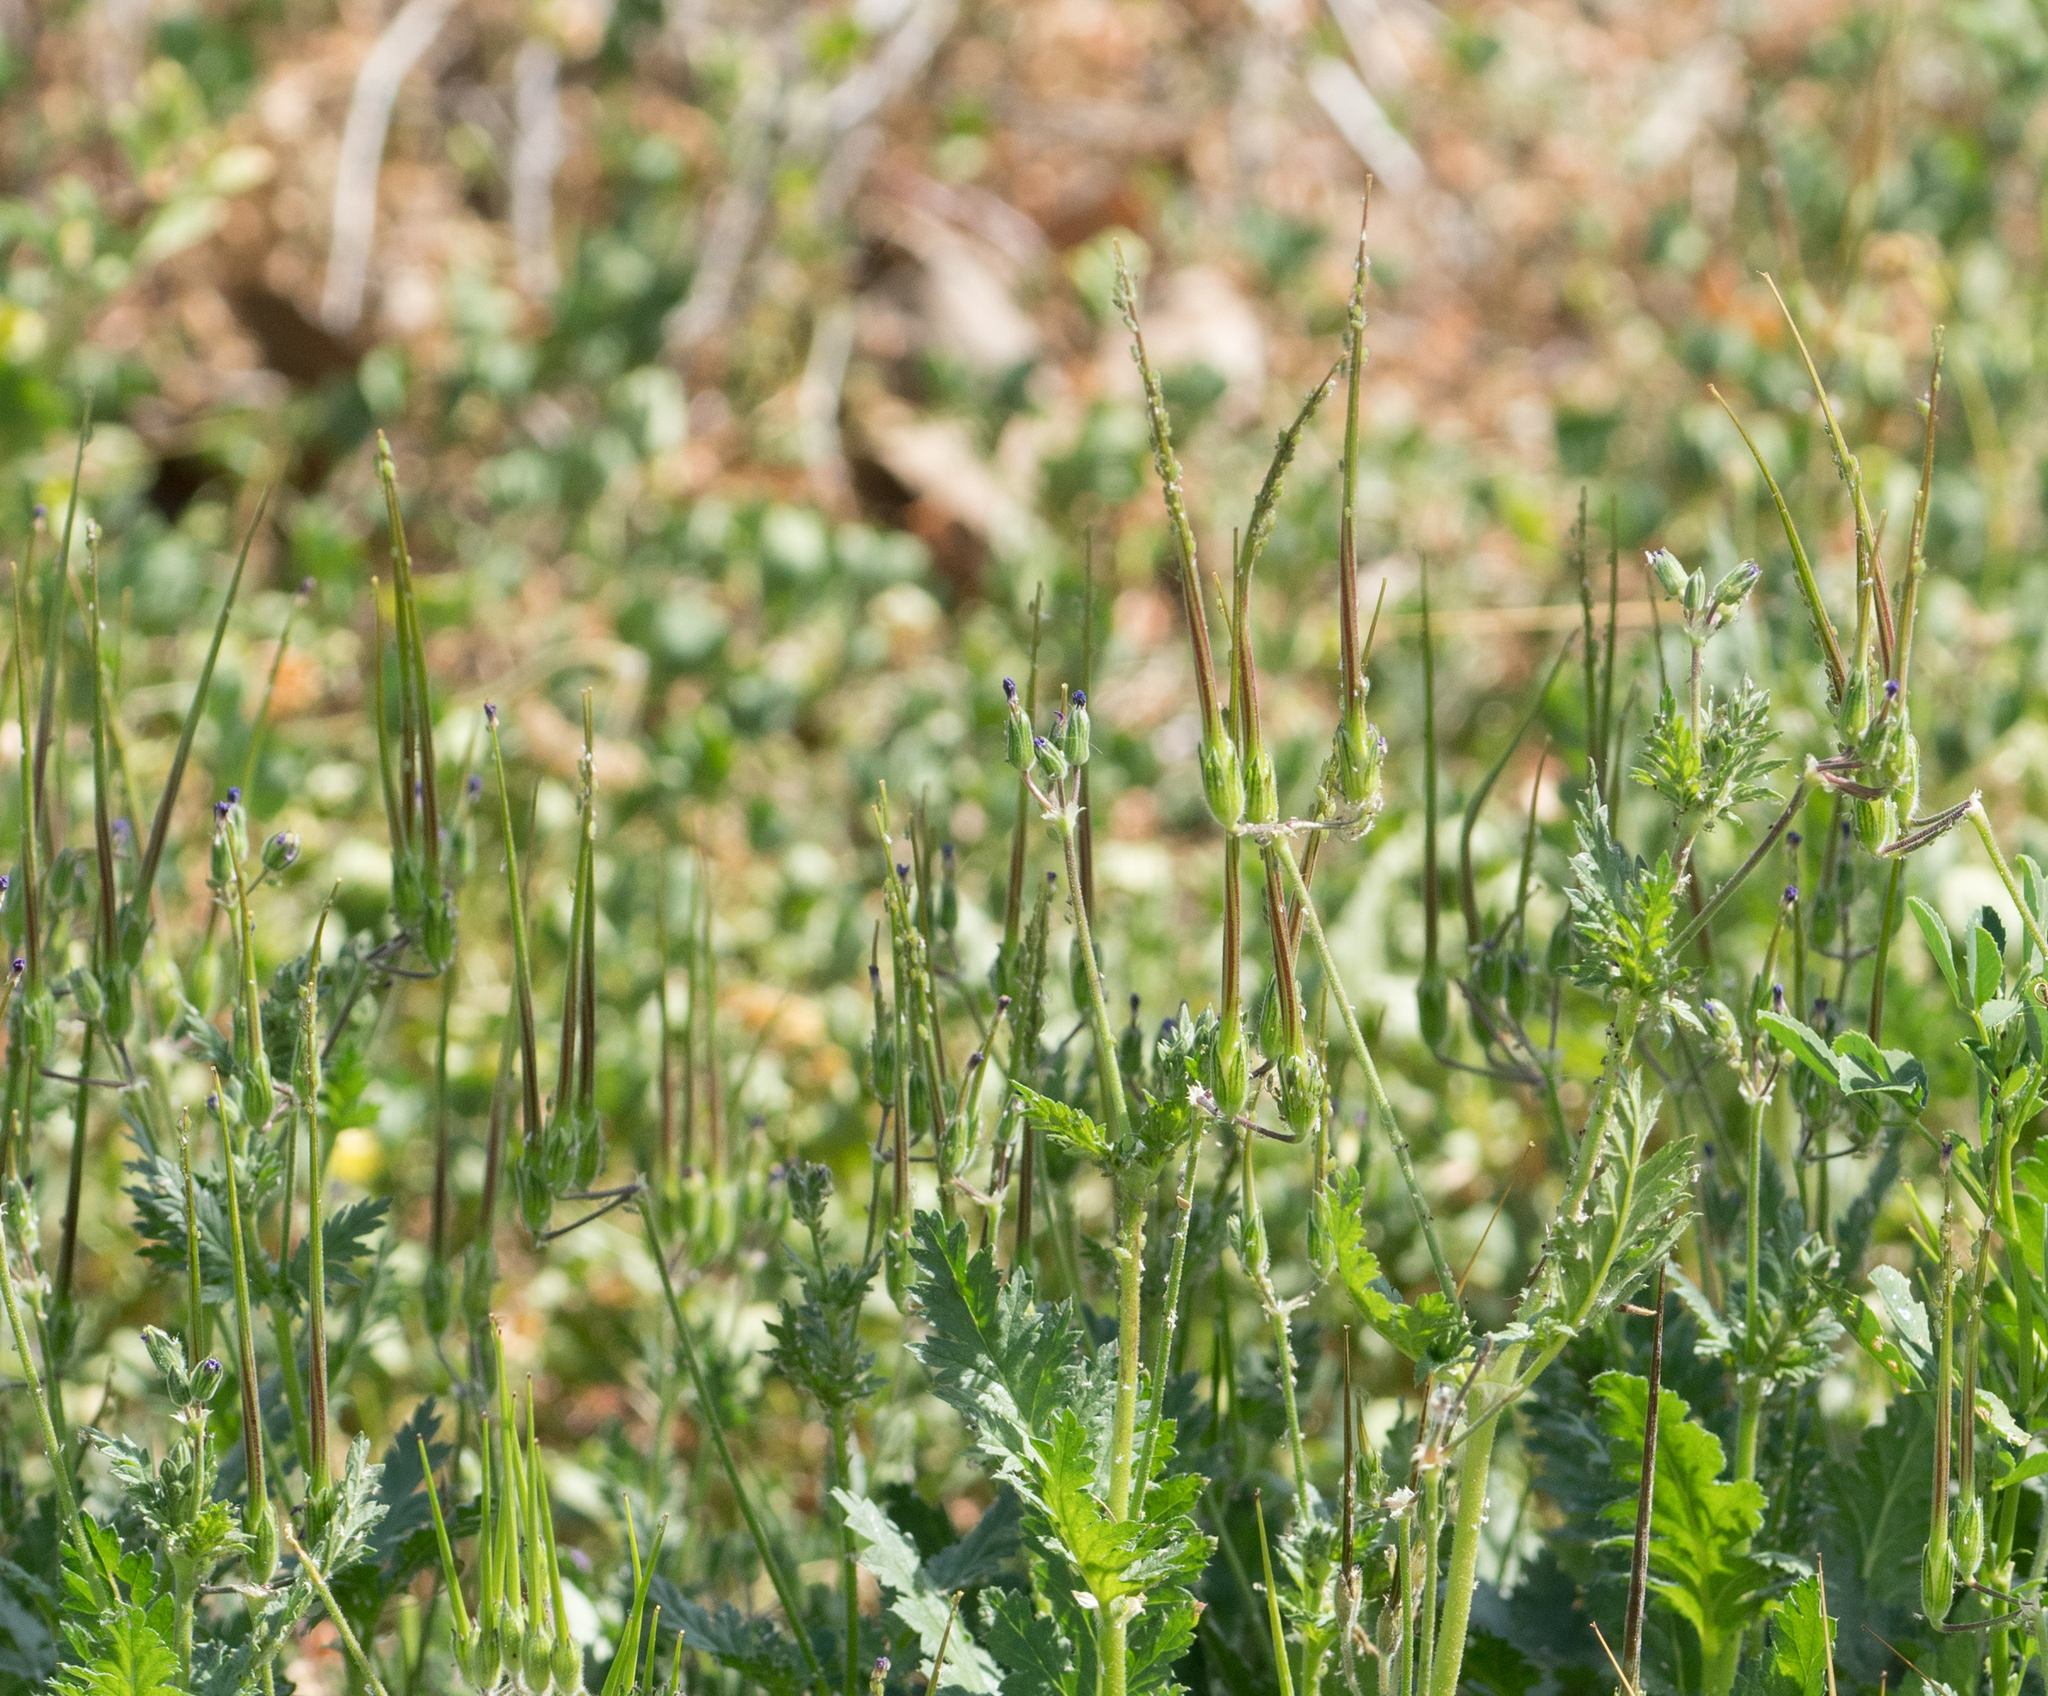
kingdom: Plantae
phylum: Tracheophyta
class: Magnoliopsida
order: Geraniales
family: Geraniaceae
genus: Erodium
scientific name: Erodium
